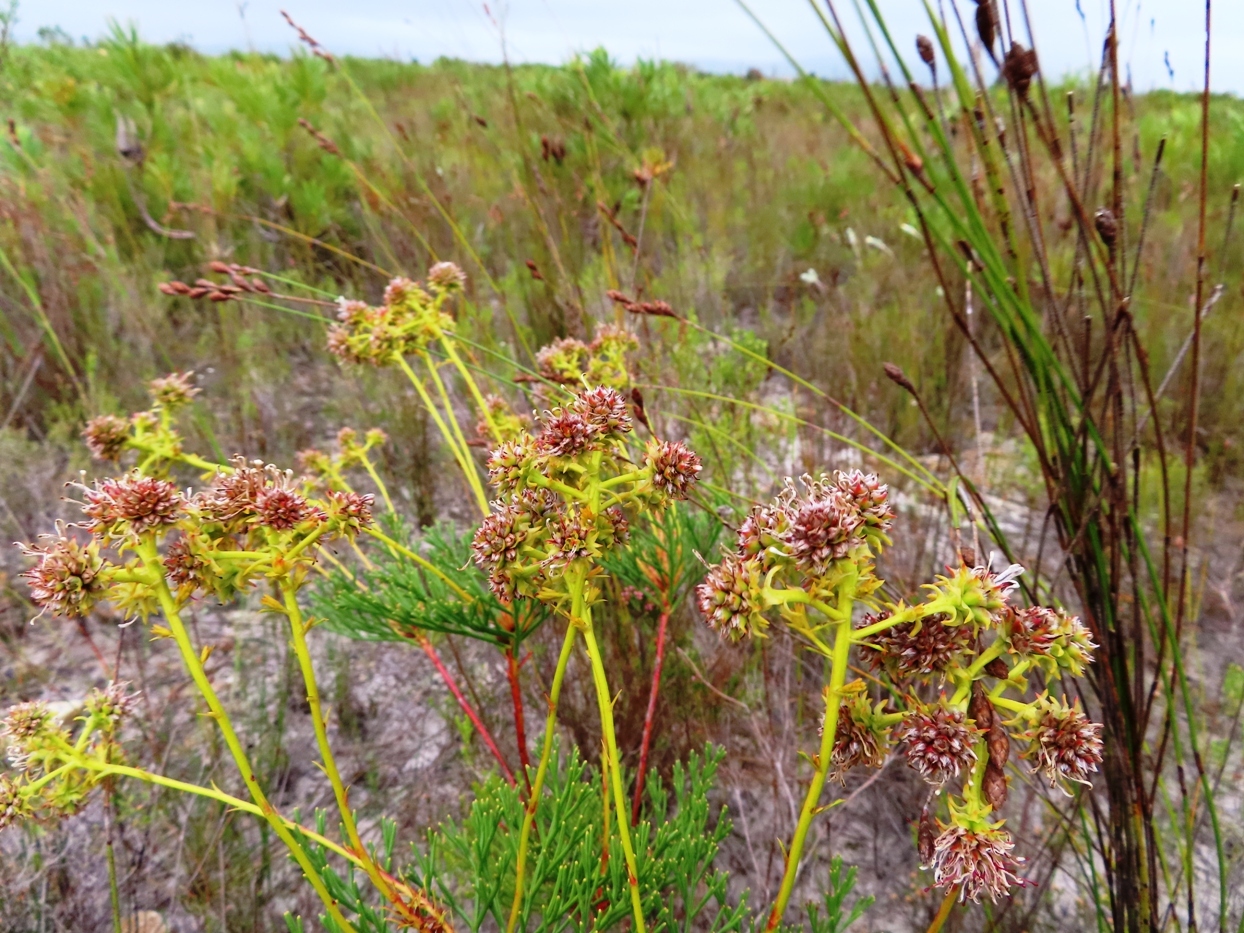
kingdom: Plantae
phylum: Tracheophyta
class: Magnoliopsida
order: Proteales
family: Proteaceae
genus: Serruria
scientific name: Serruria elongata
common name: Long-stalk spiderhead
